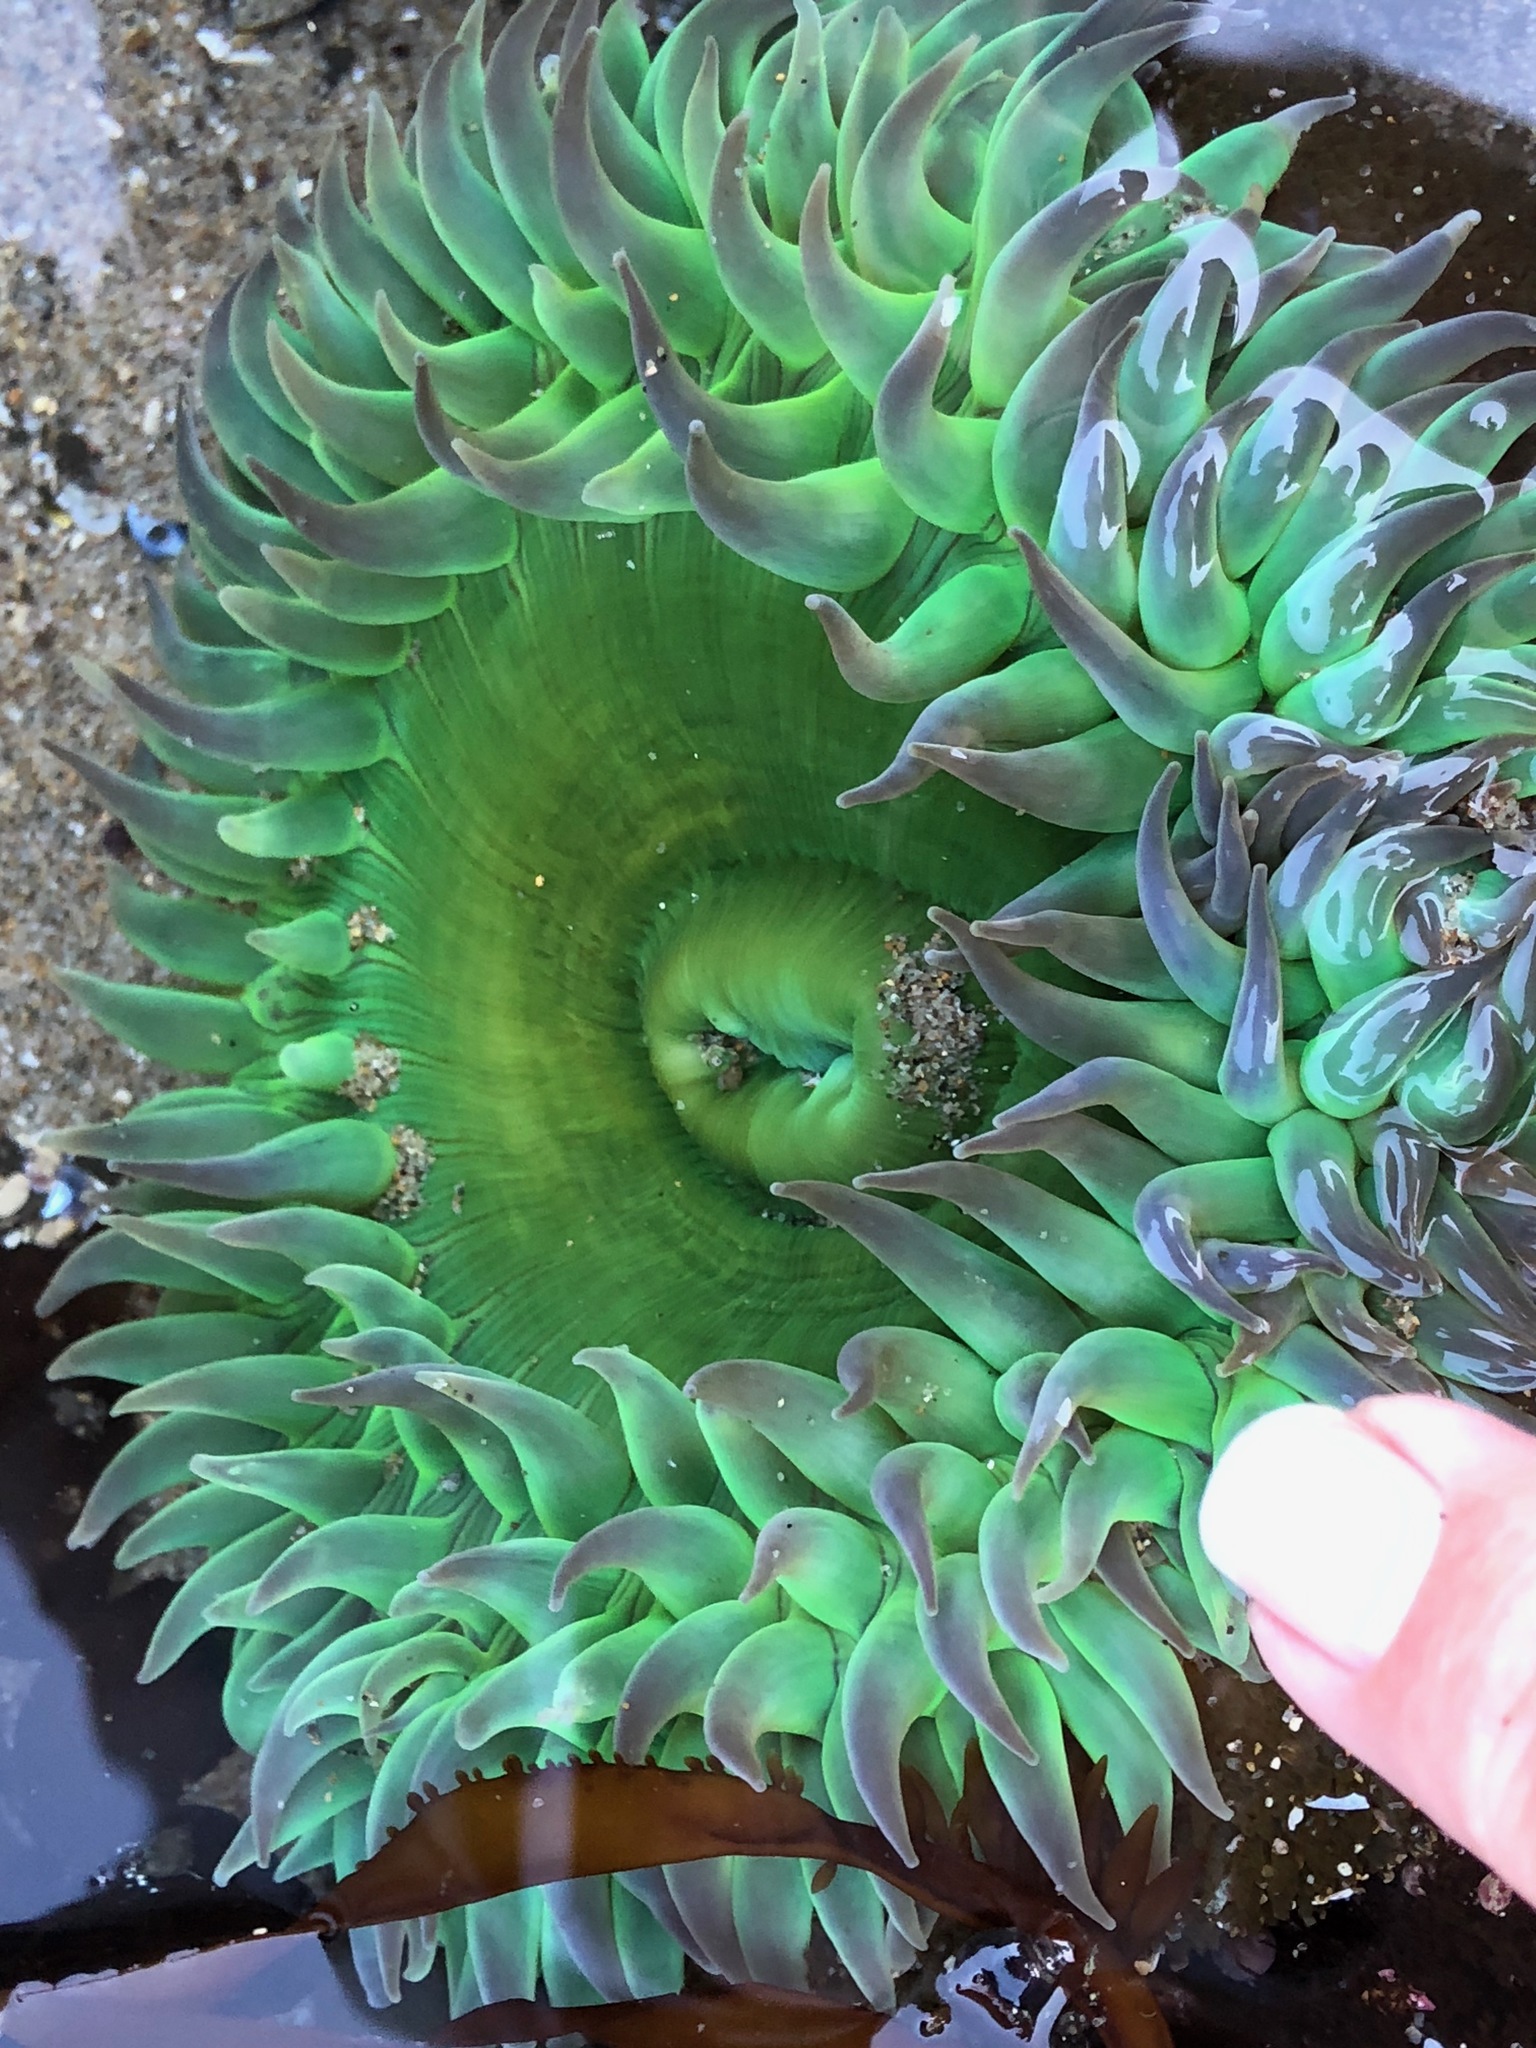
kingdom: Animalia
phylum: Cnidaria
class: Anthozoa
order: Actiniaria
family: Actiniidae
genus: Anthopleura
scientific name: Anthopleura xanthogrammica
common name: Giant green anemone
